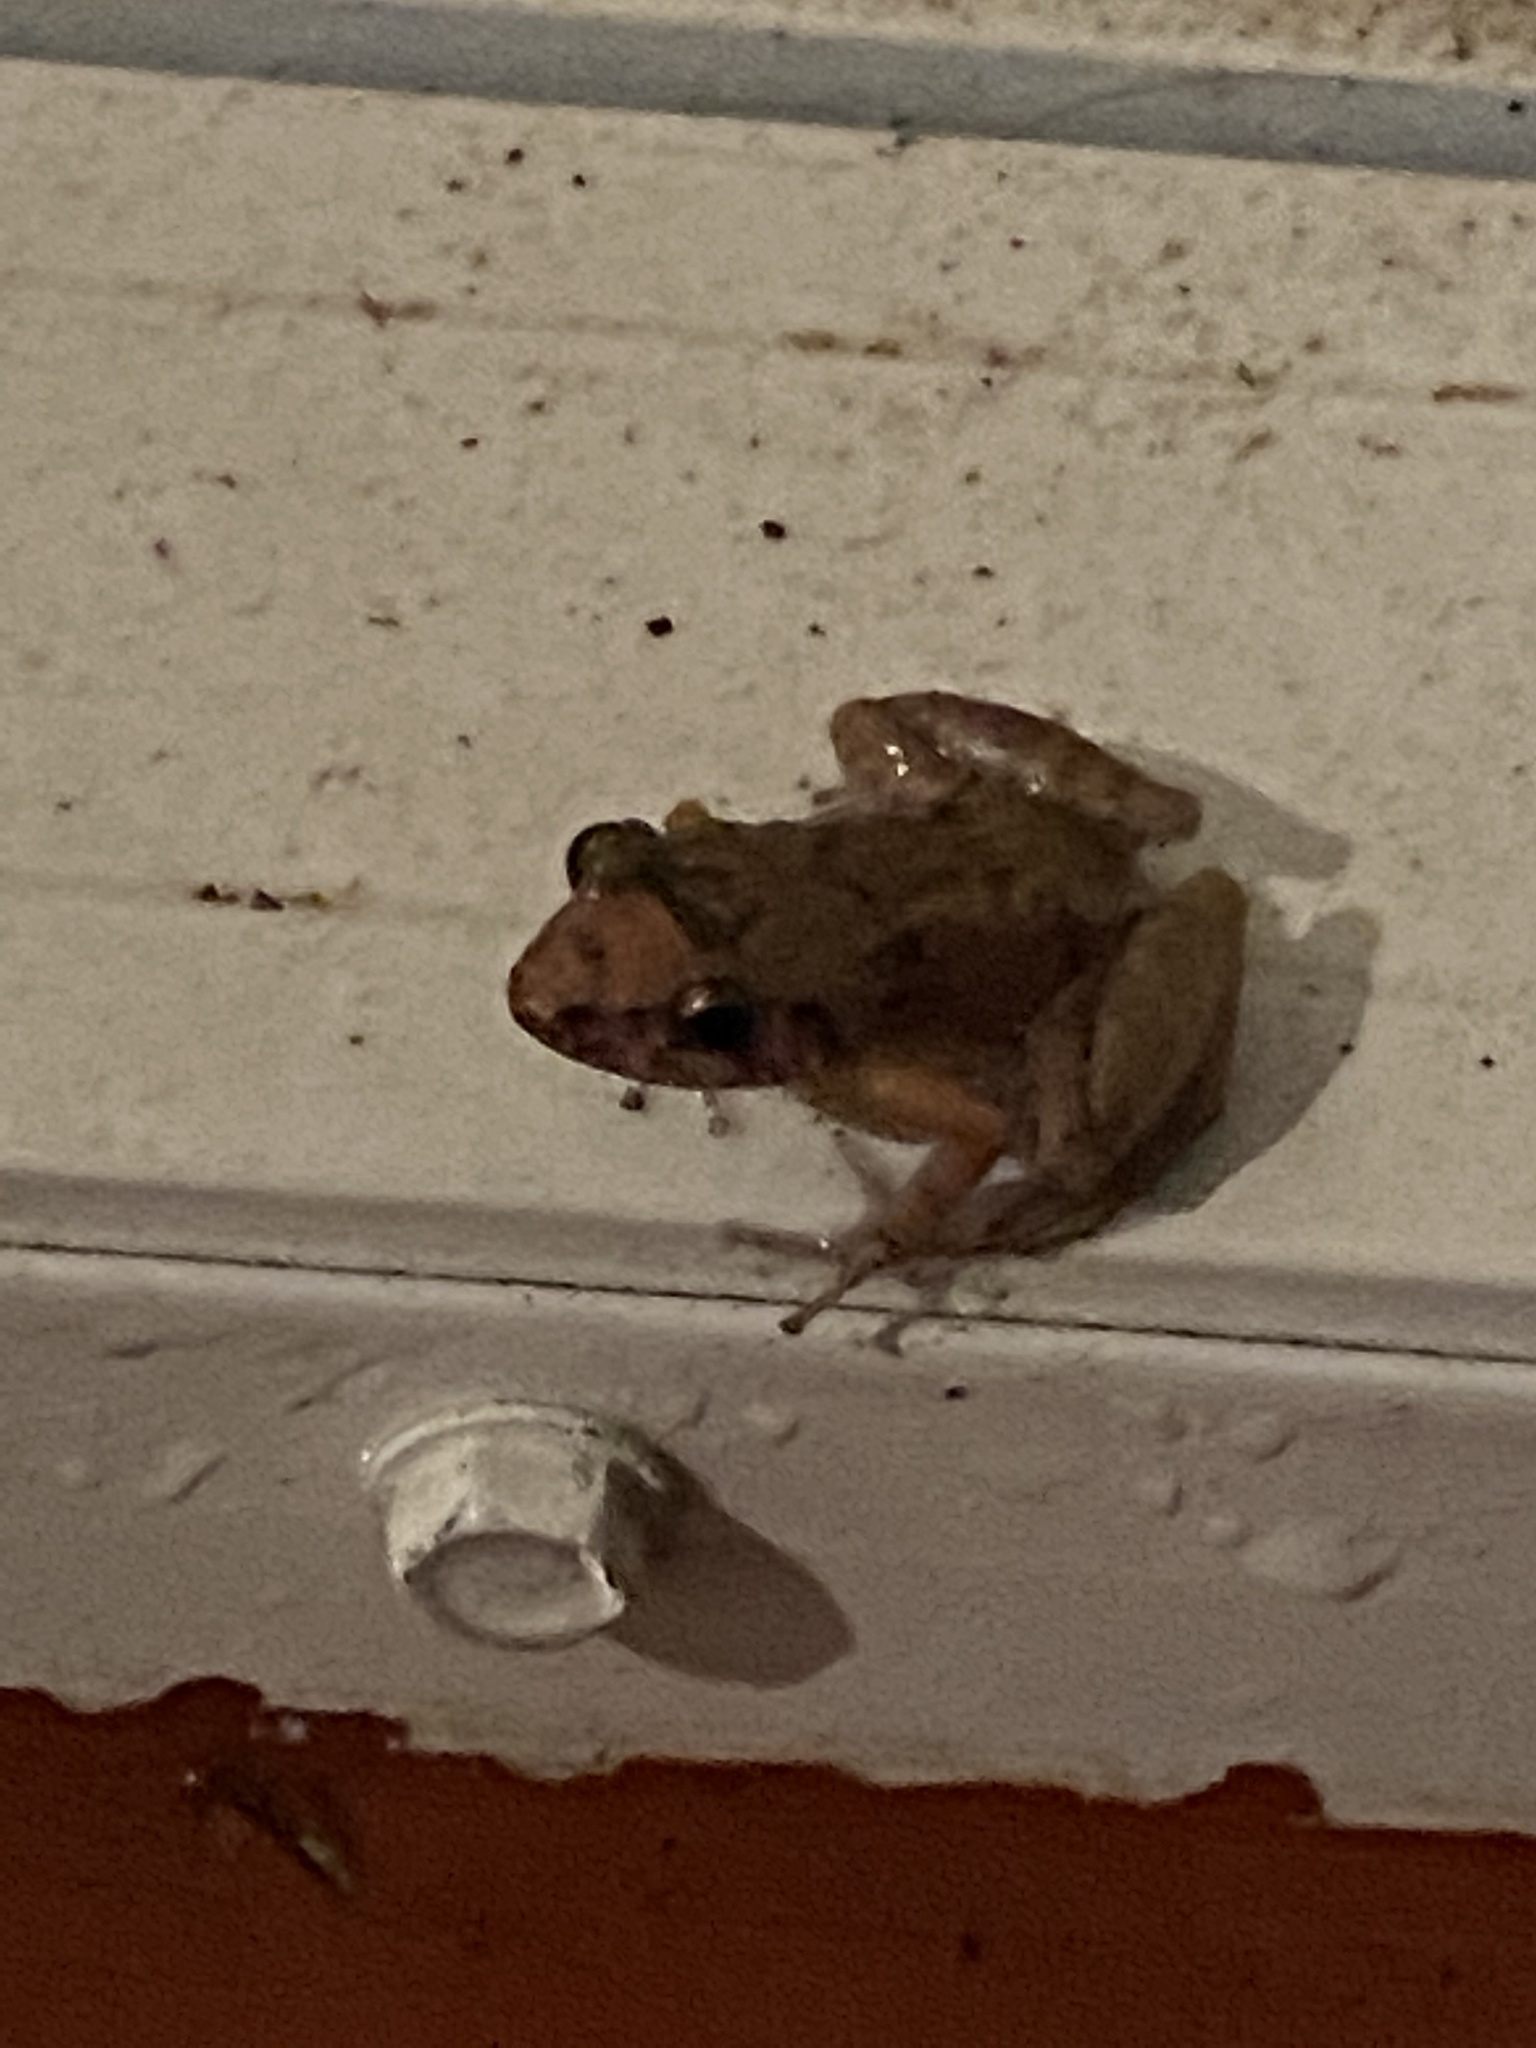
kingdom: Animalia
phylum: Chordata
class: Amphibia
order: Anura
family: Eleutherodactylidae
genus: Eleutherodactylus
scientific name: Eleutherodactylus planirostris
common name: Greenhouse frog
